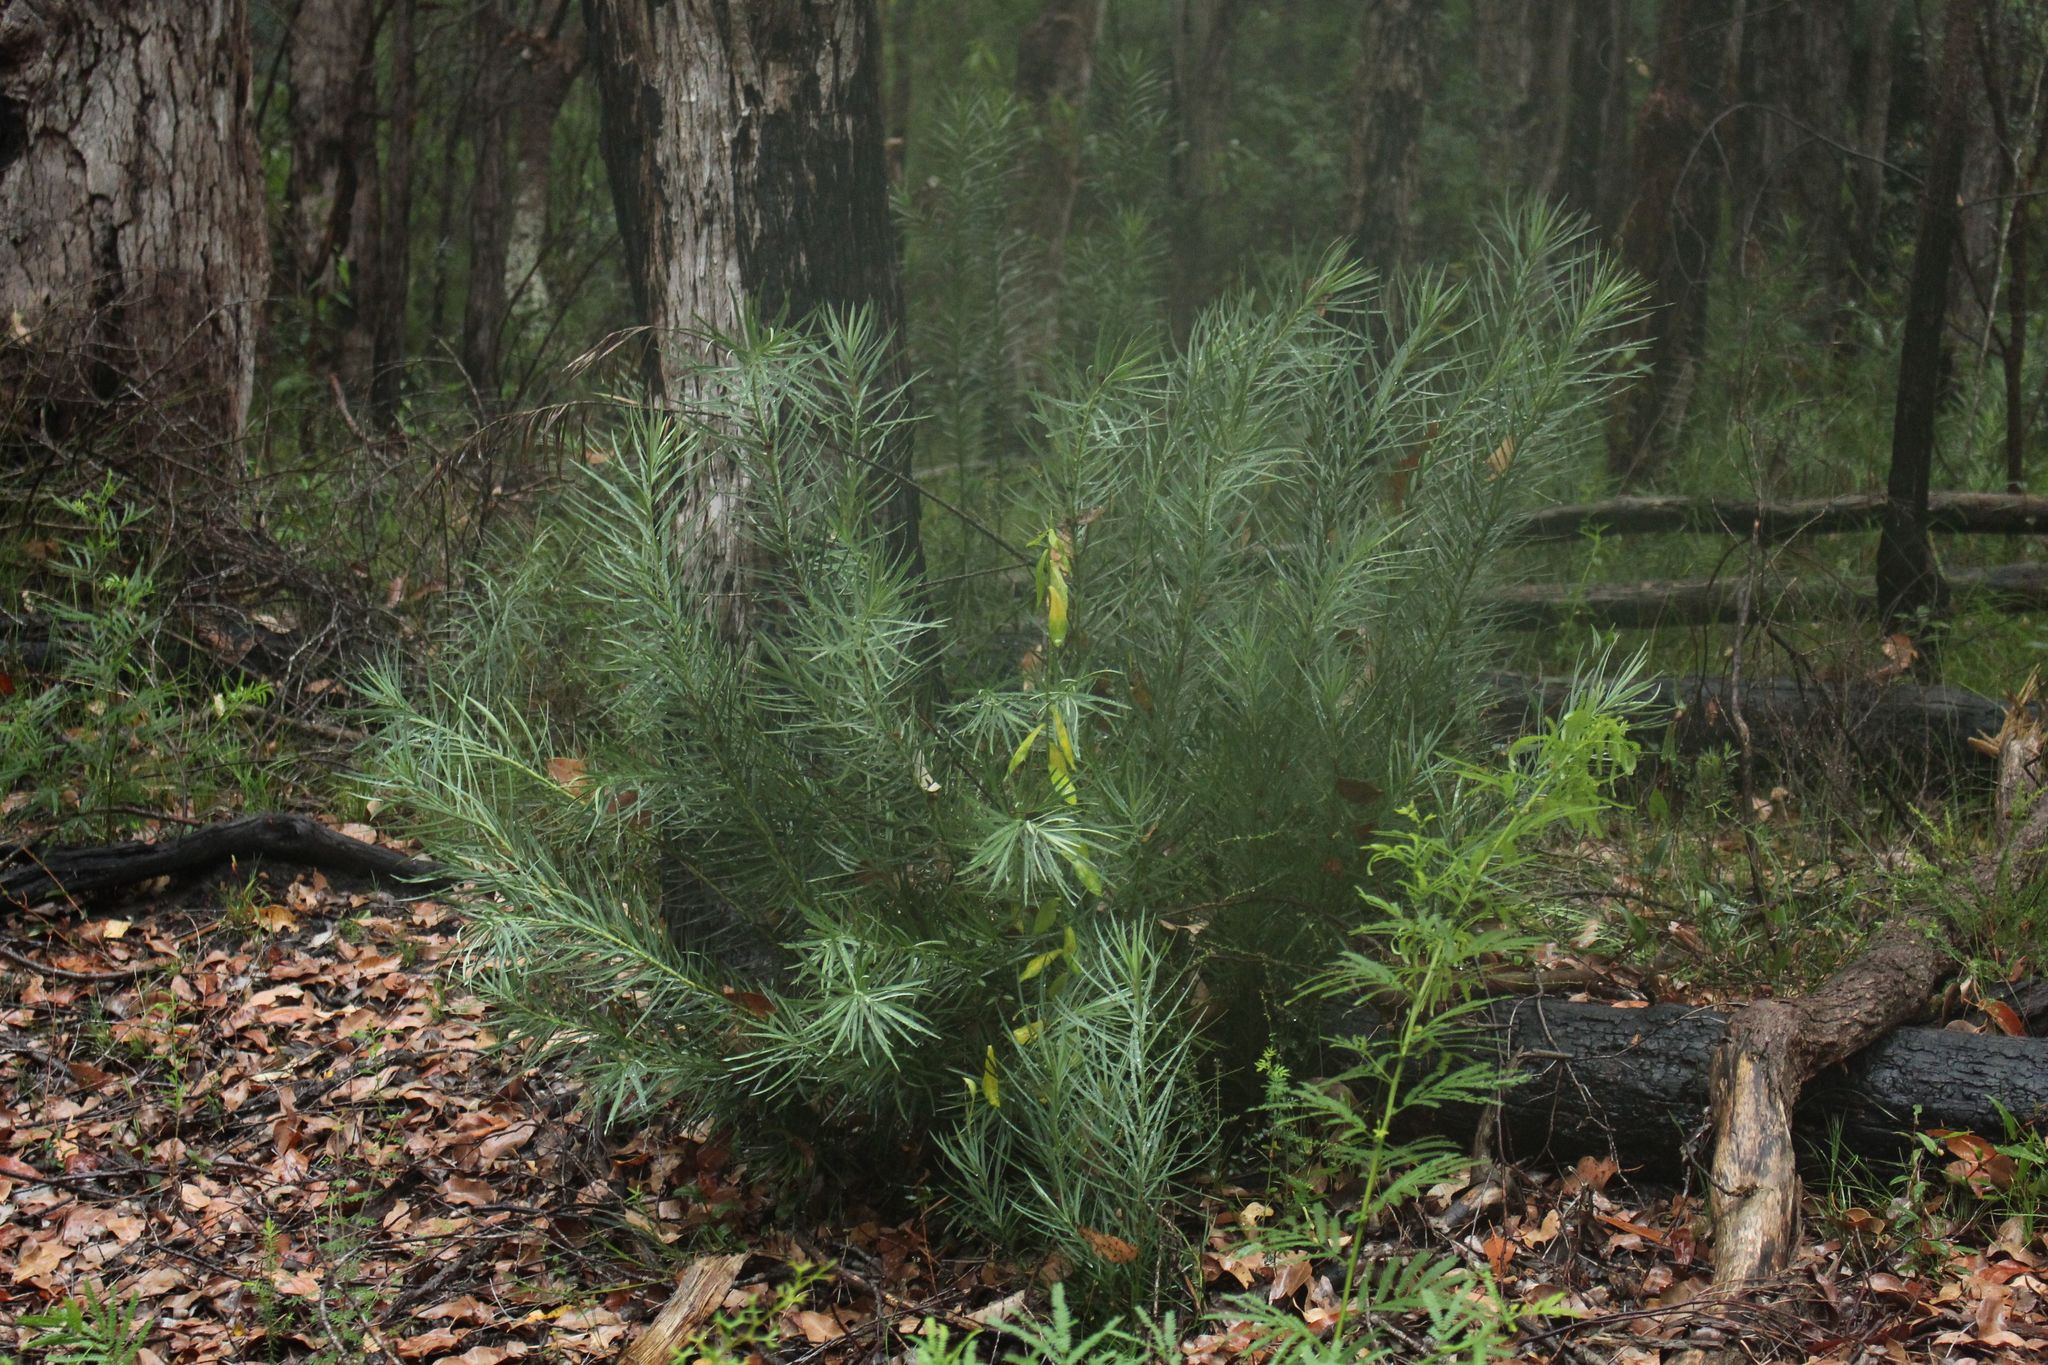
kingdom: Plantae
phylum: Tracheophyta
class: Pinopsida
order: Pinales
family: Podocarpaceae
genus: Podocarpus
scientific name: Podocarpus drouynianus
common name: Emu berry
